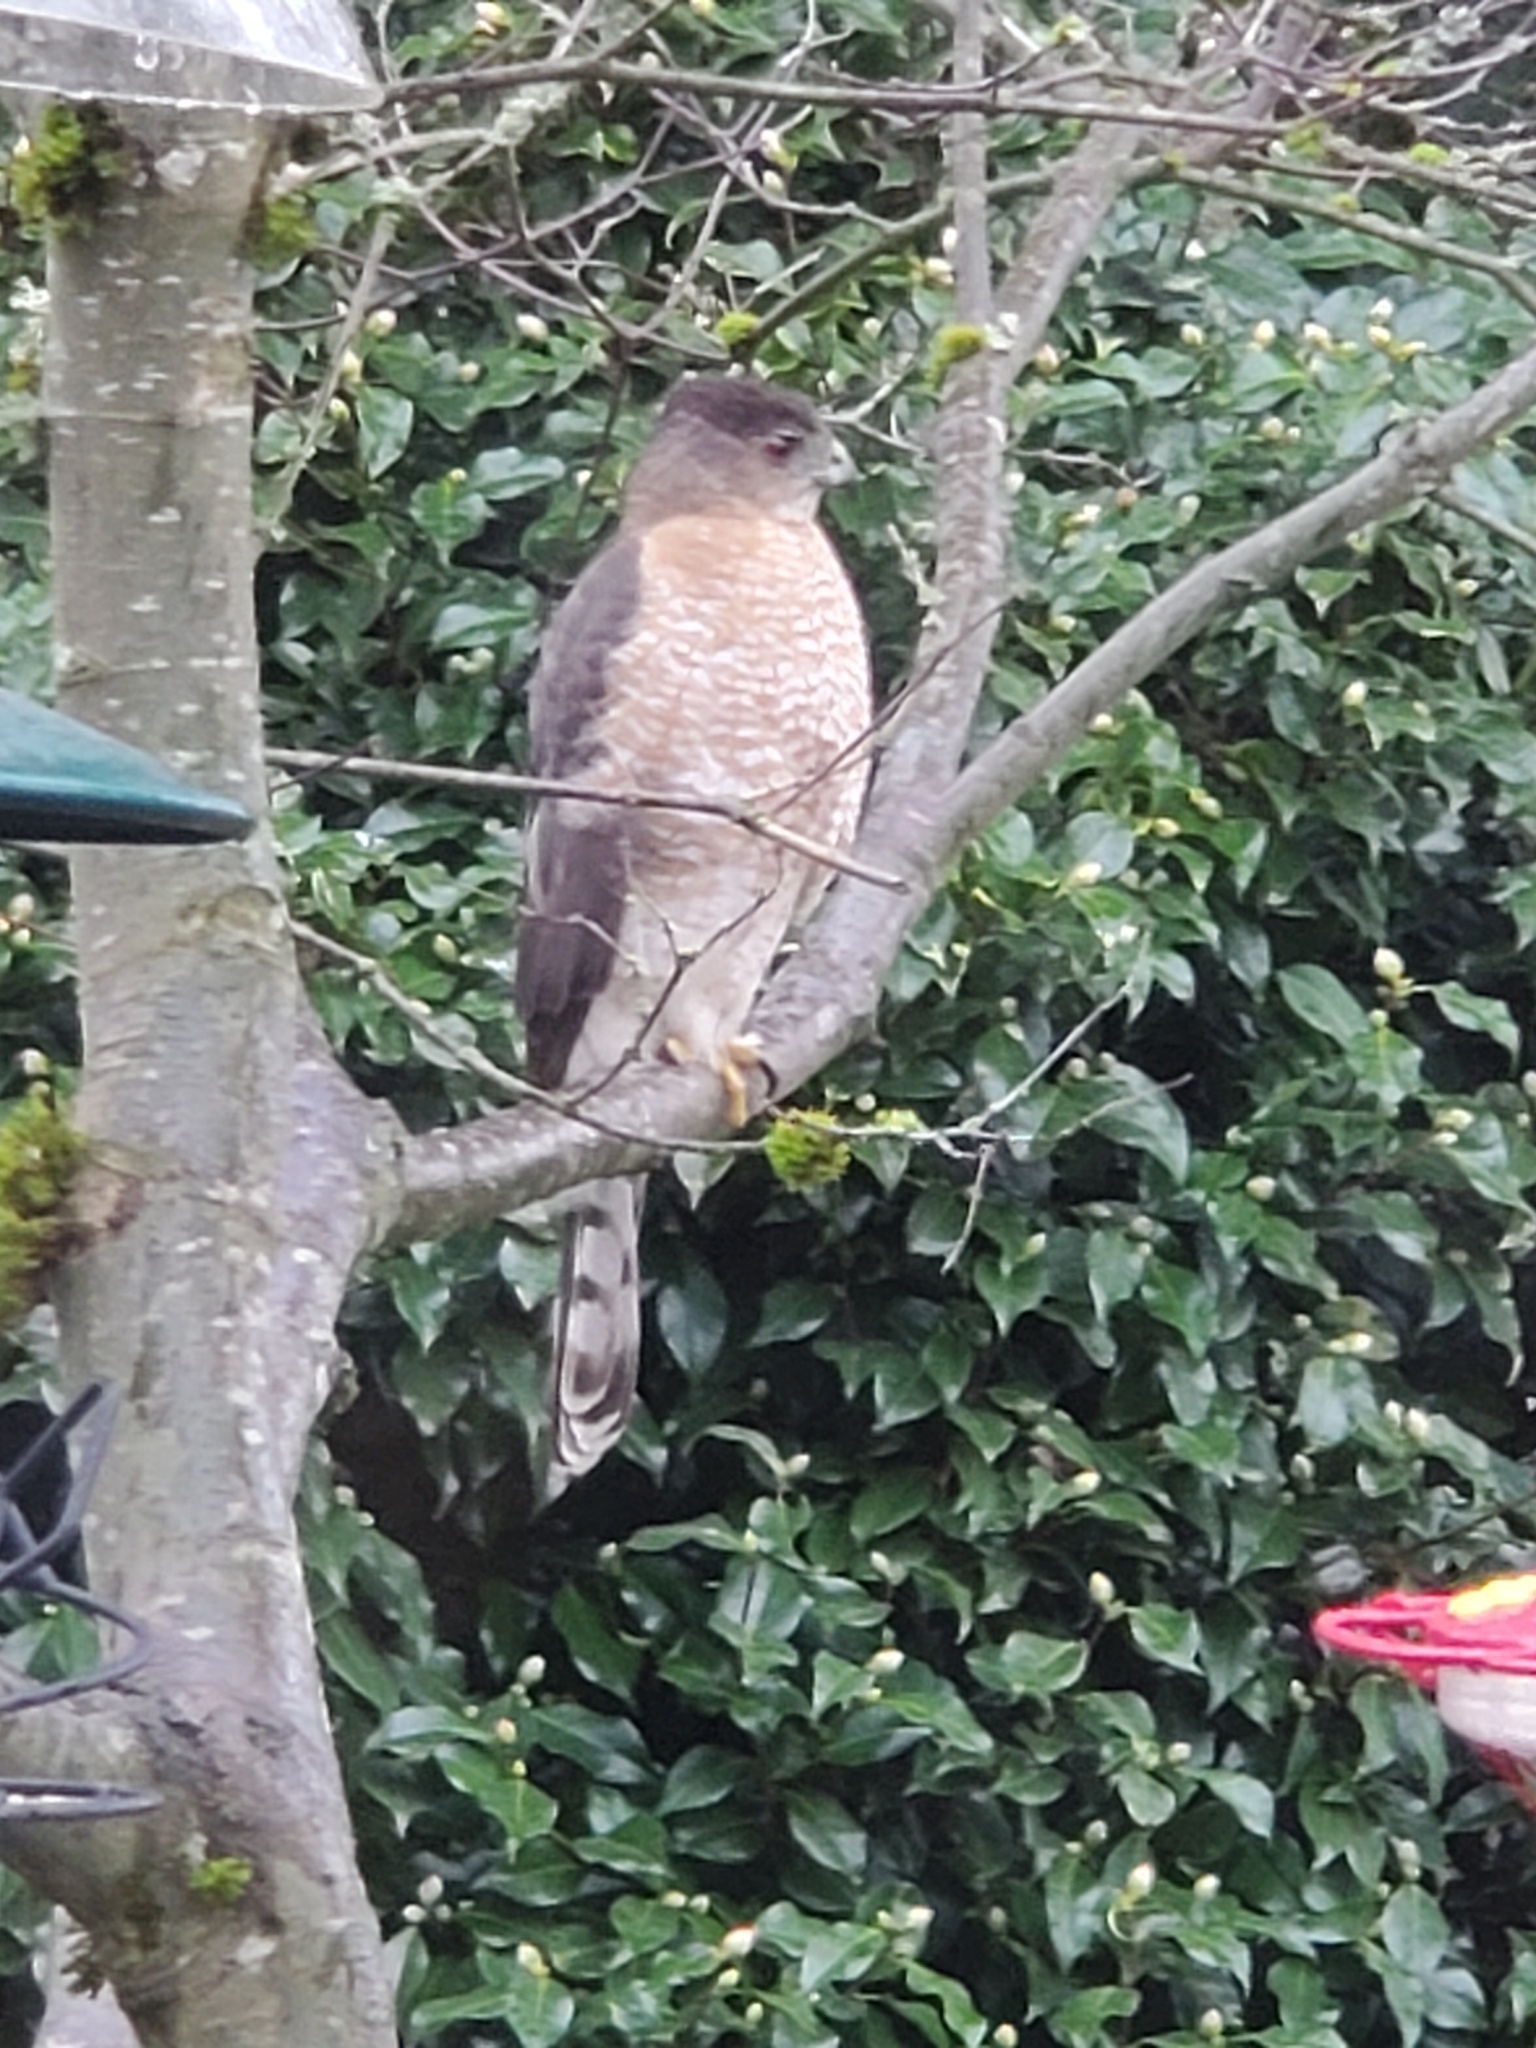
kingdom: Animalia
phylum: Chordata
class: Aves
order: Accipitriformes
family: Accipitridae
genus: Accipiter
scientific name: Accipiter cooperii
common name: Cooper's hawk
